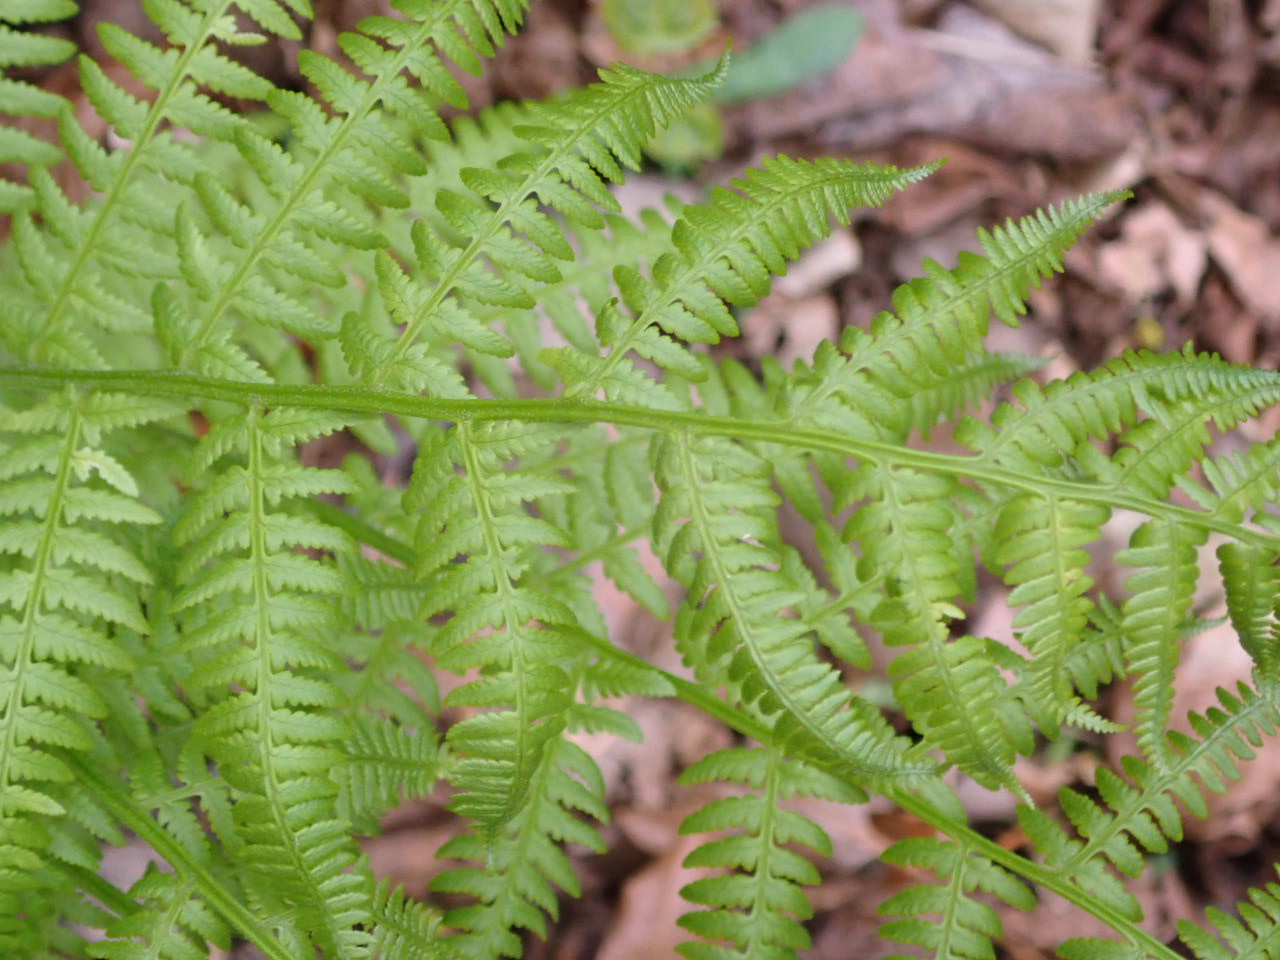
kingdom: Plantae
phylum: Tracheophyta
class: Polypodiopsida
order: Polypodiales
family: Athyriaceae
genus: Athyrium
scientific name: Athyrium angustum
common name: Northern lady fern
